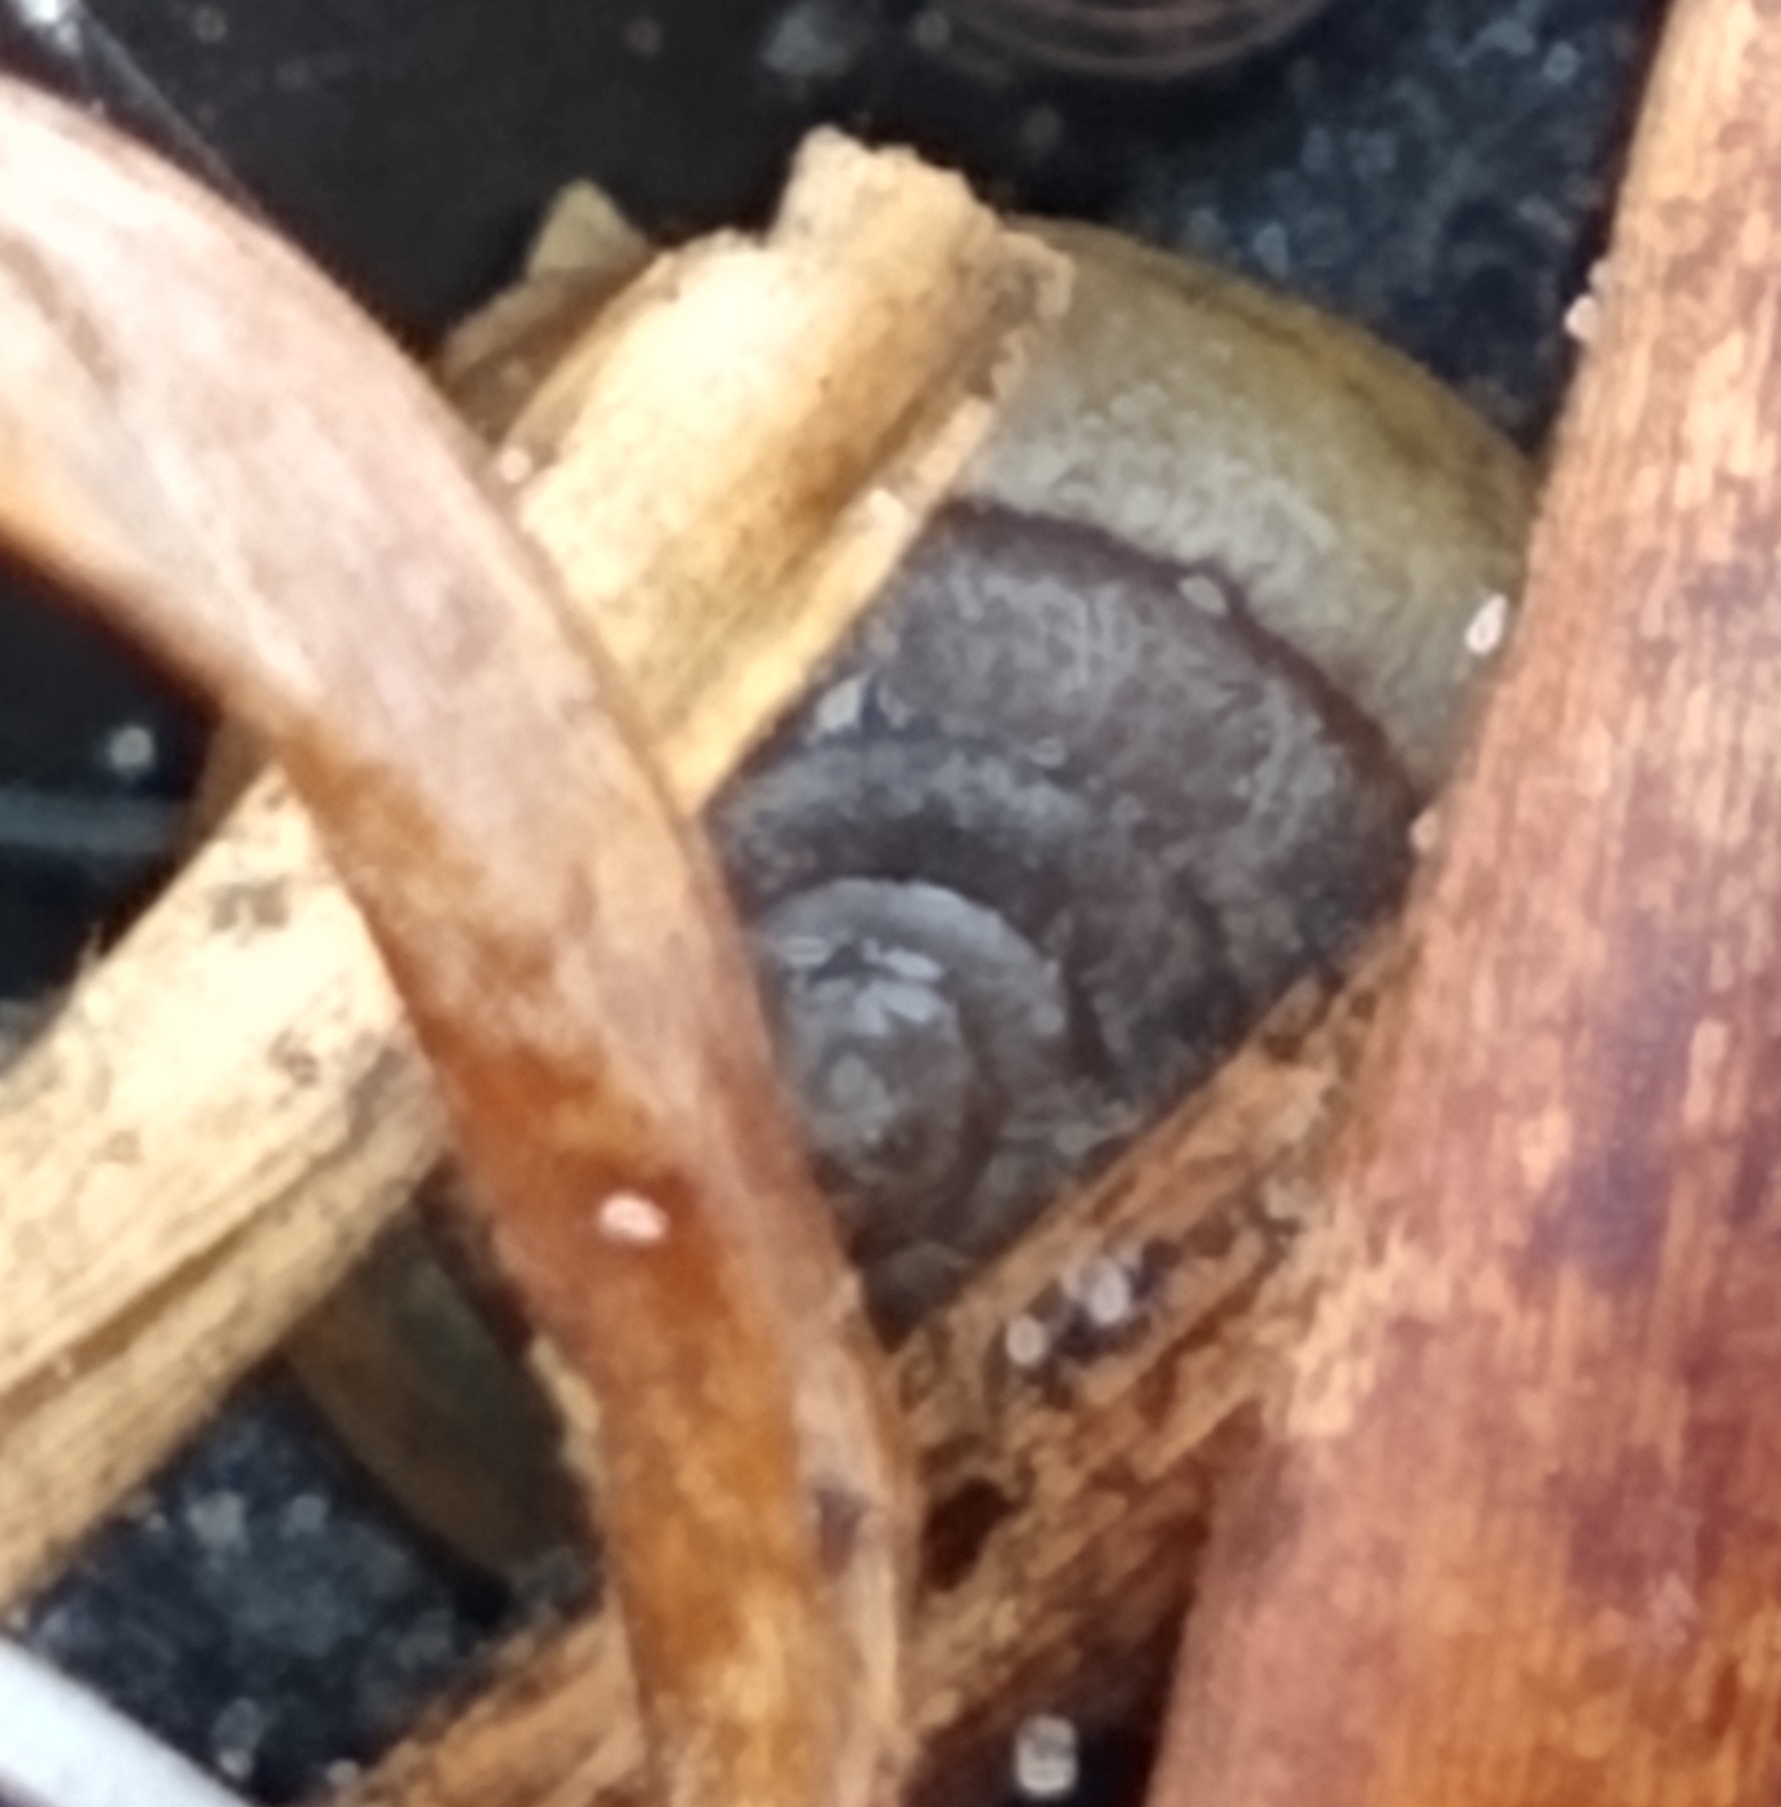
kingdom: Animalia
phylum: Mollusca
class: Gastropoda
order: Stylommatophora
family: Polygyridae
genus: Polygyra
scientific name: Polygyra cereolus
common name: Southern flatcone snail
